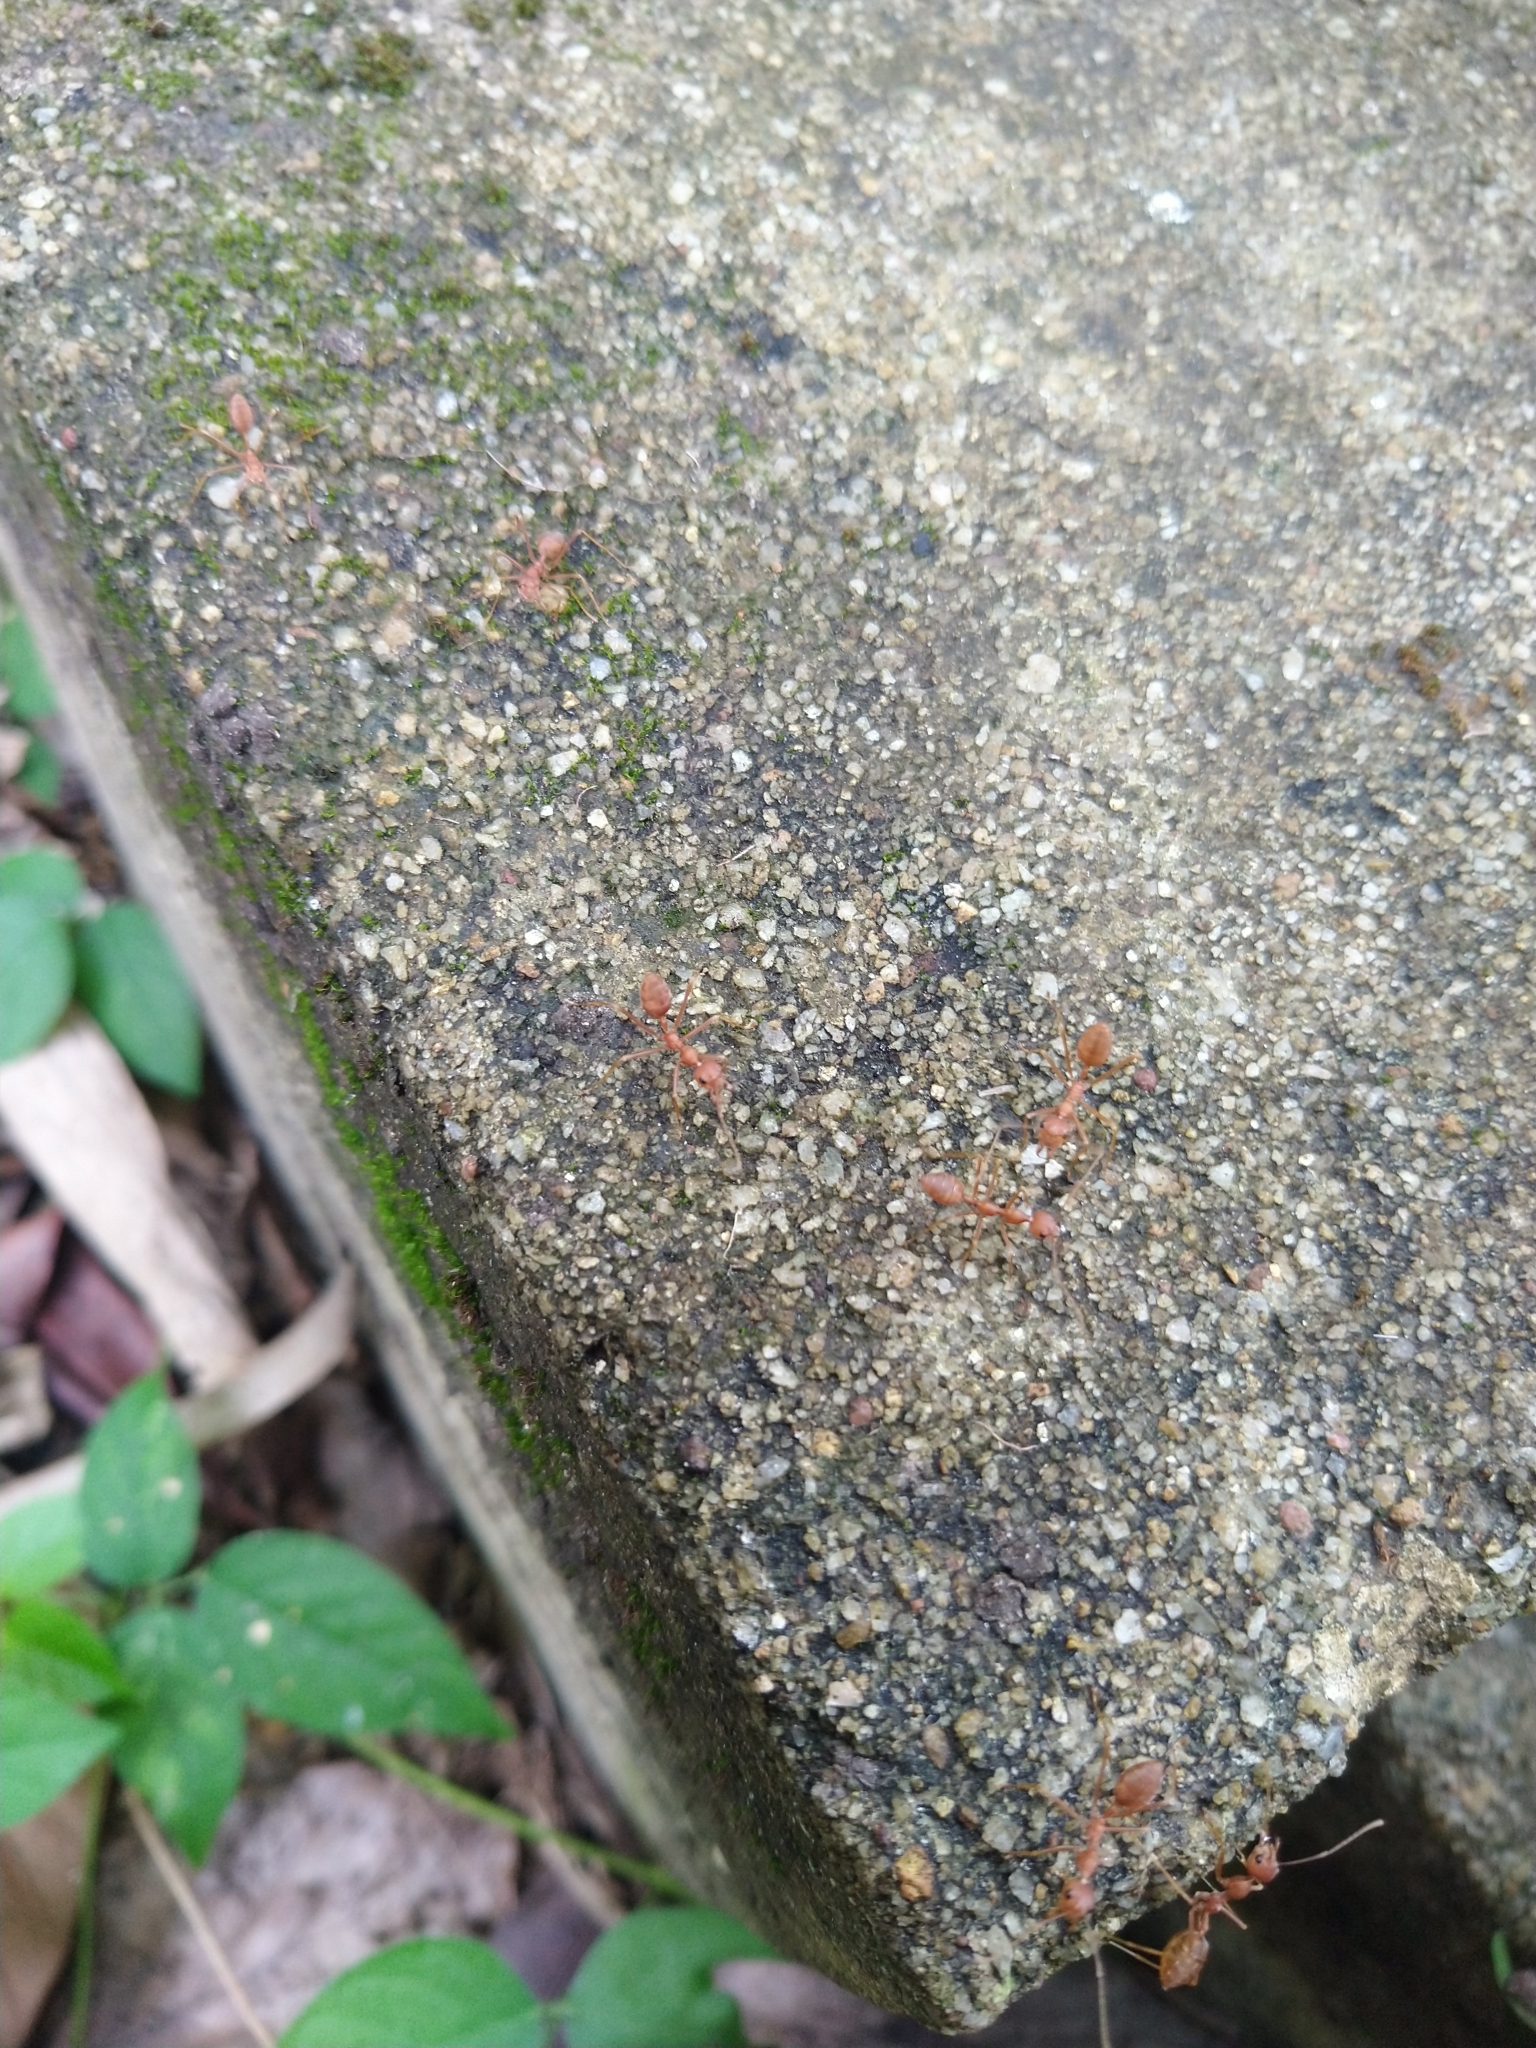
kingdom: Animalia
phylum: Arthropoda
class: Insecta
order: Hymenoptera
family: Formicidae
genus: Oecophylla
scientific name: Oecophylla smaragdina
